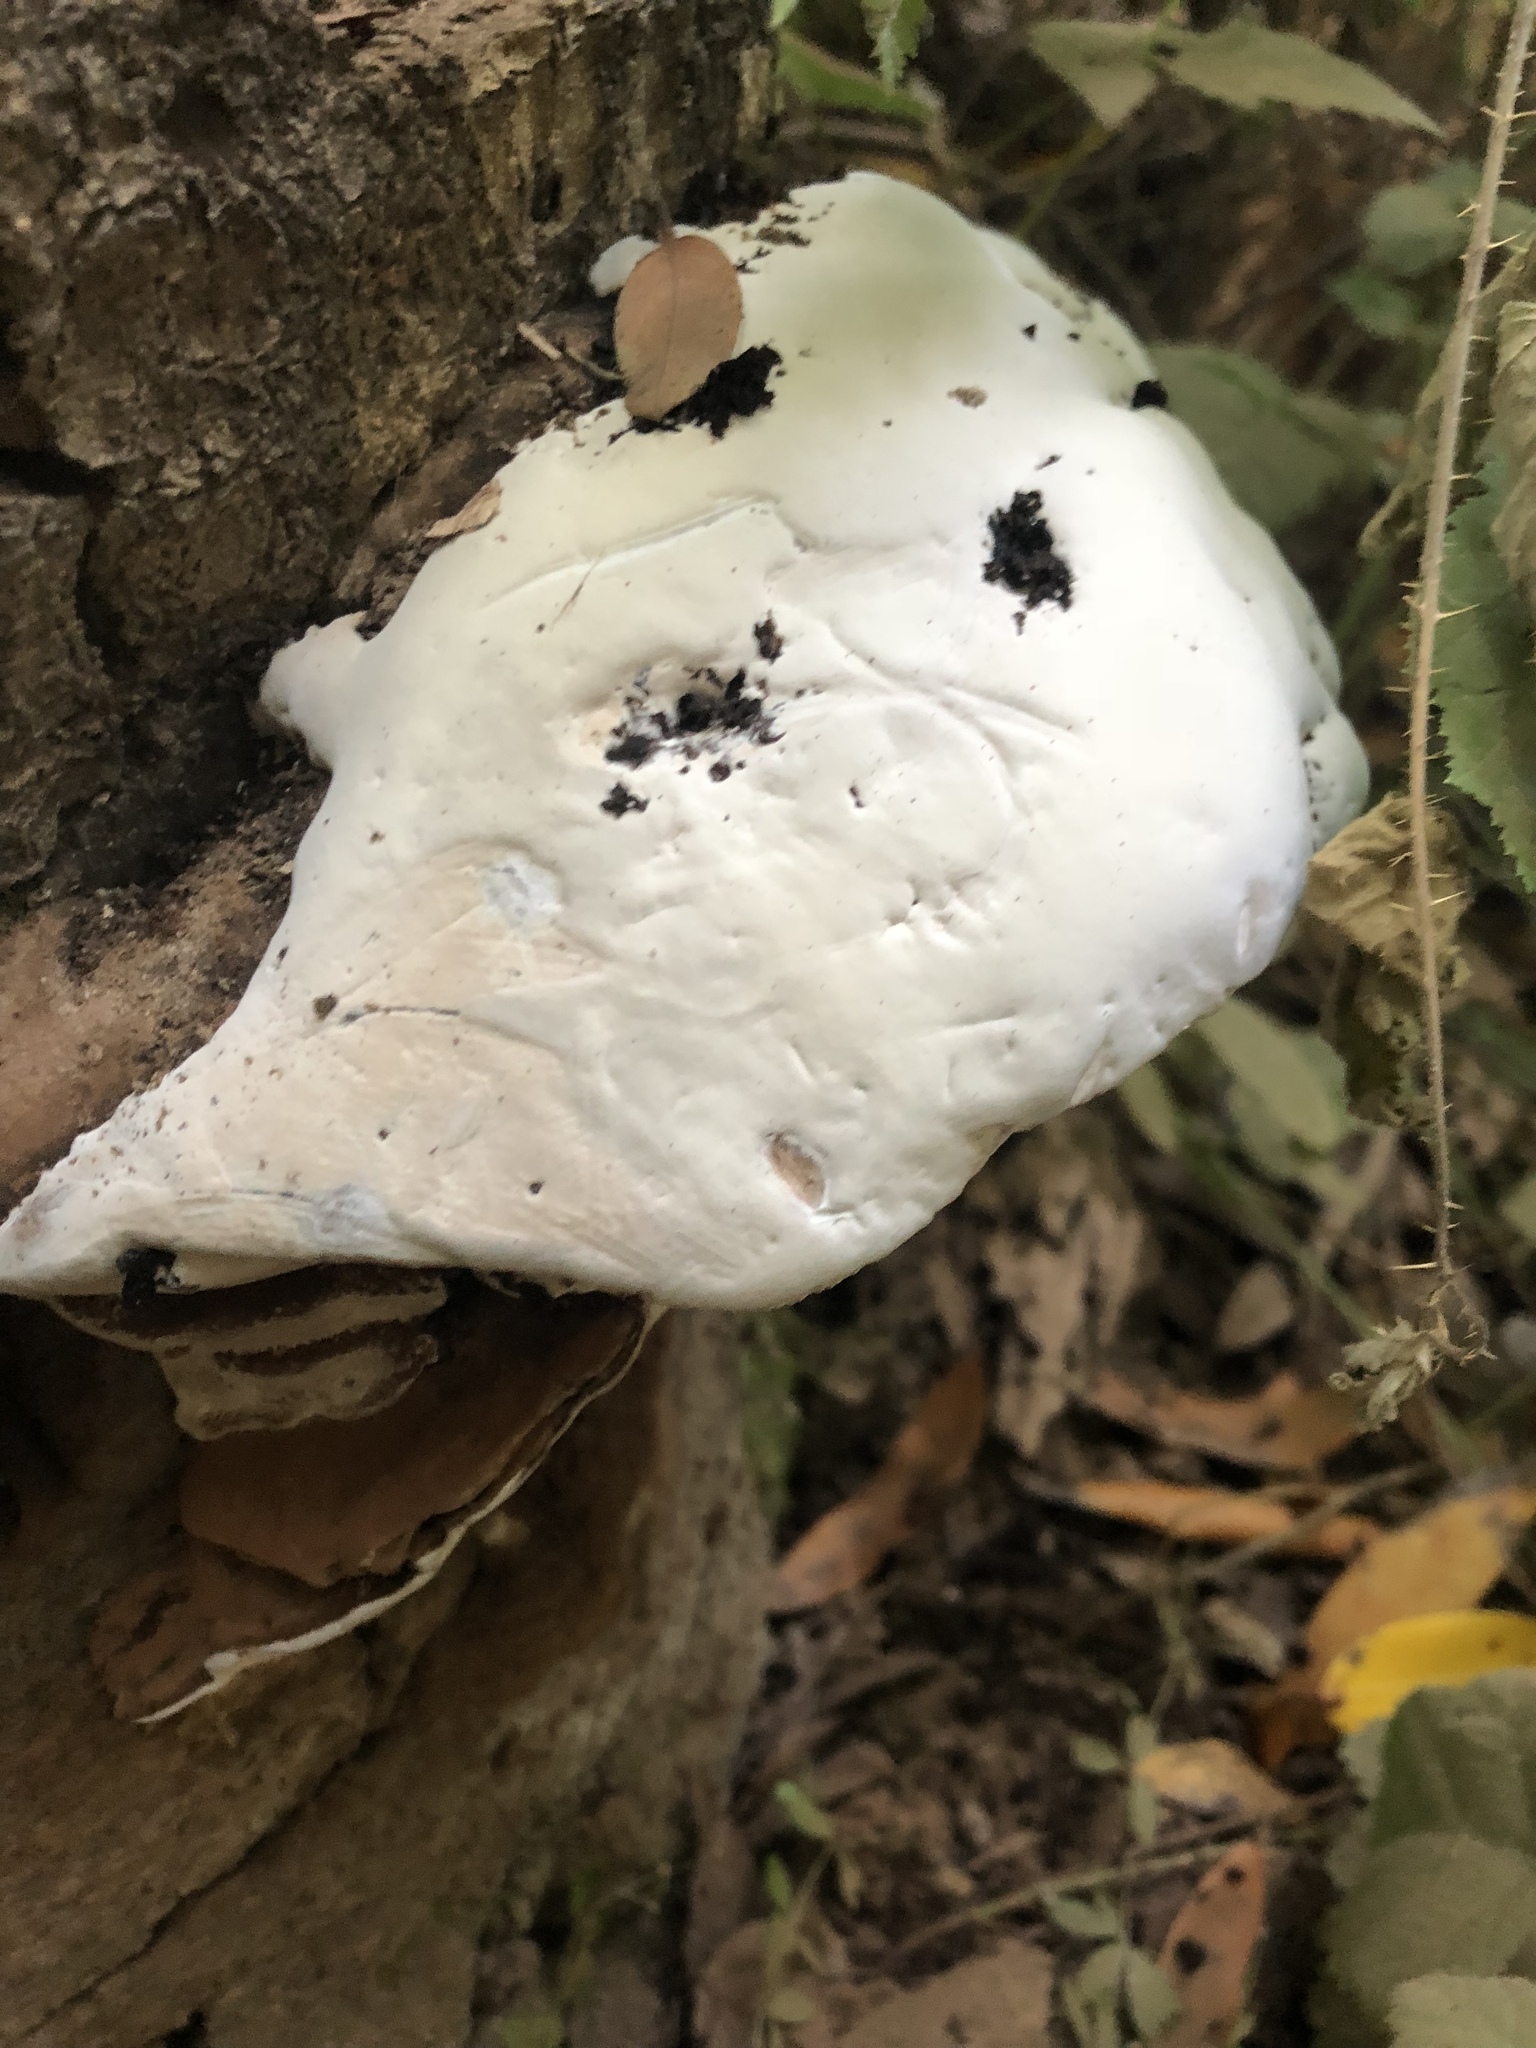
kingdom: Fungi
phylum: Basidiomycota
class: Agaricomycetes
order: Polyporales
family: Polyporaceae
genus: Ganoderma
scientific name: Ganoderma applanatum
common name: Artist's bracket
